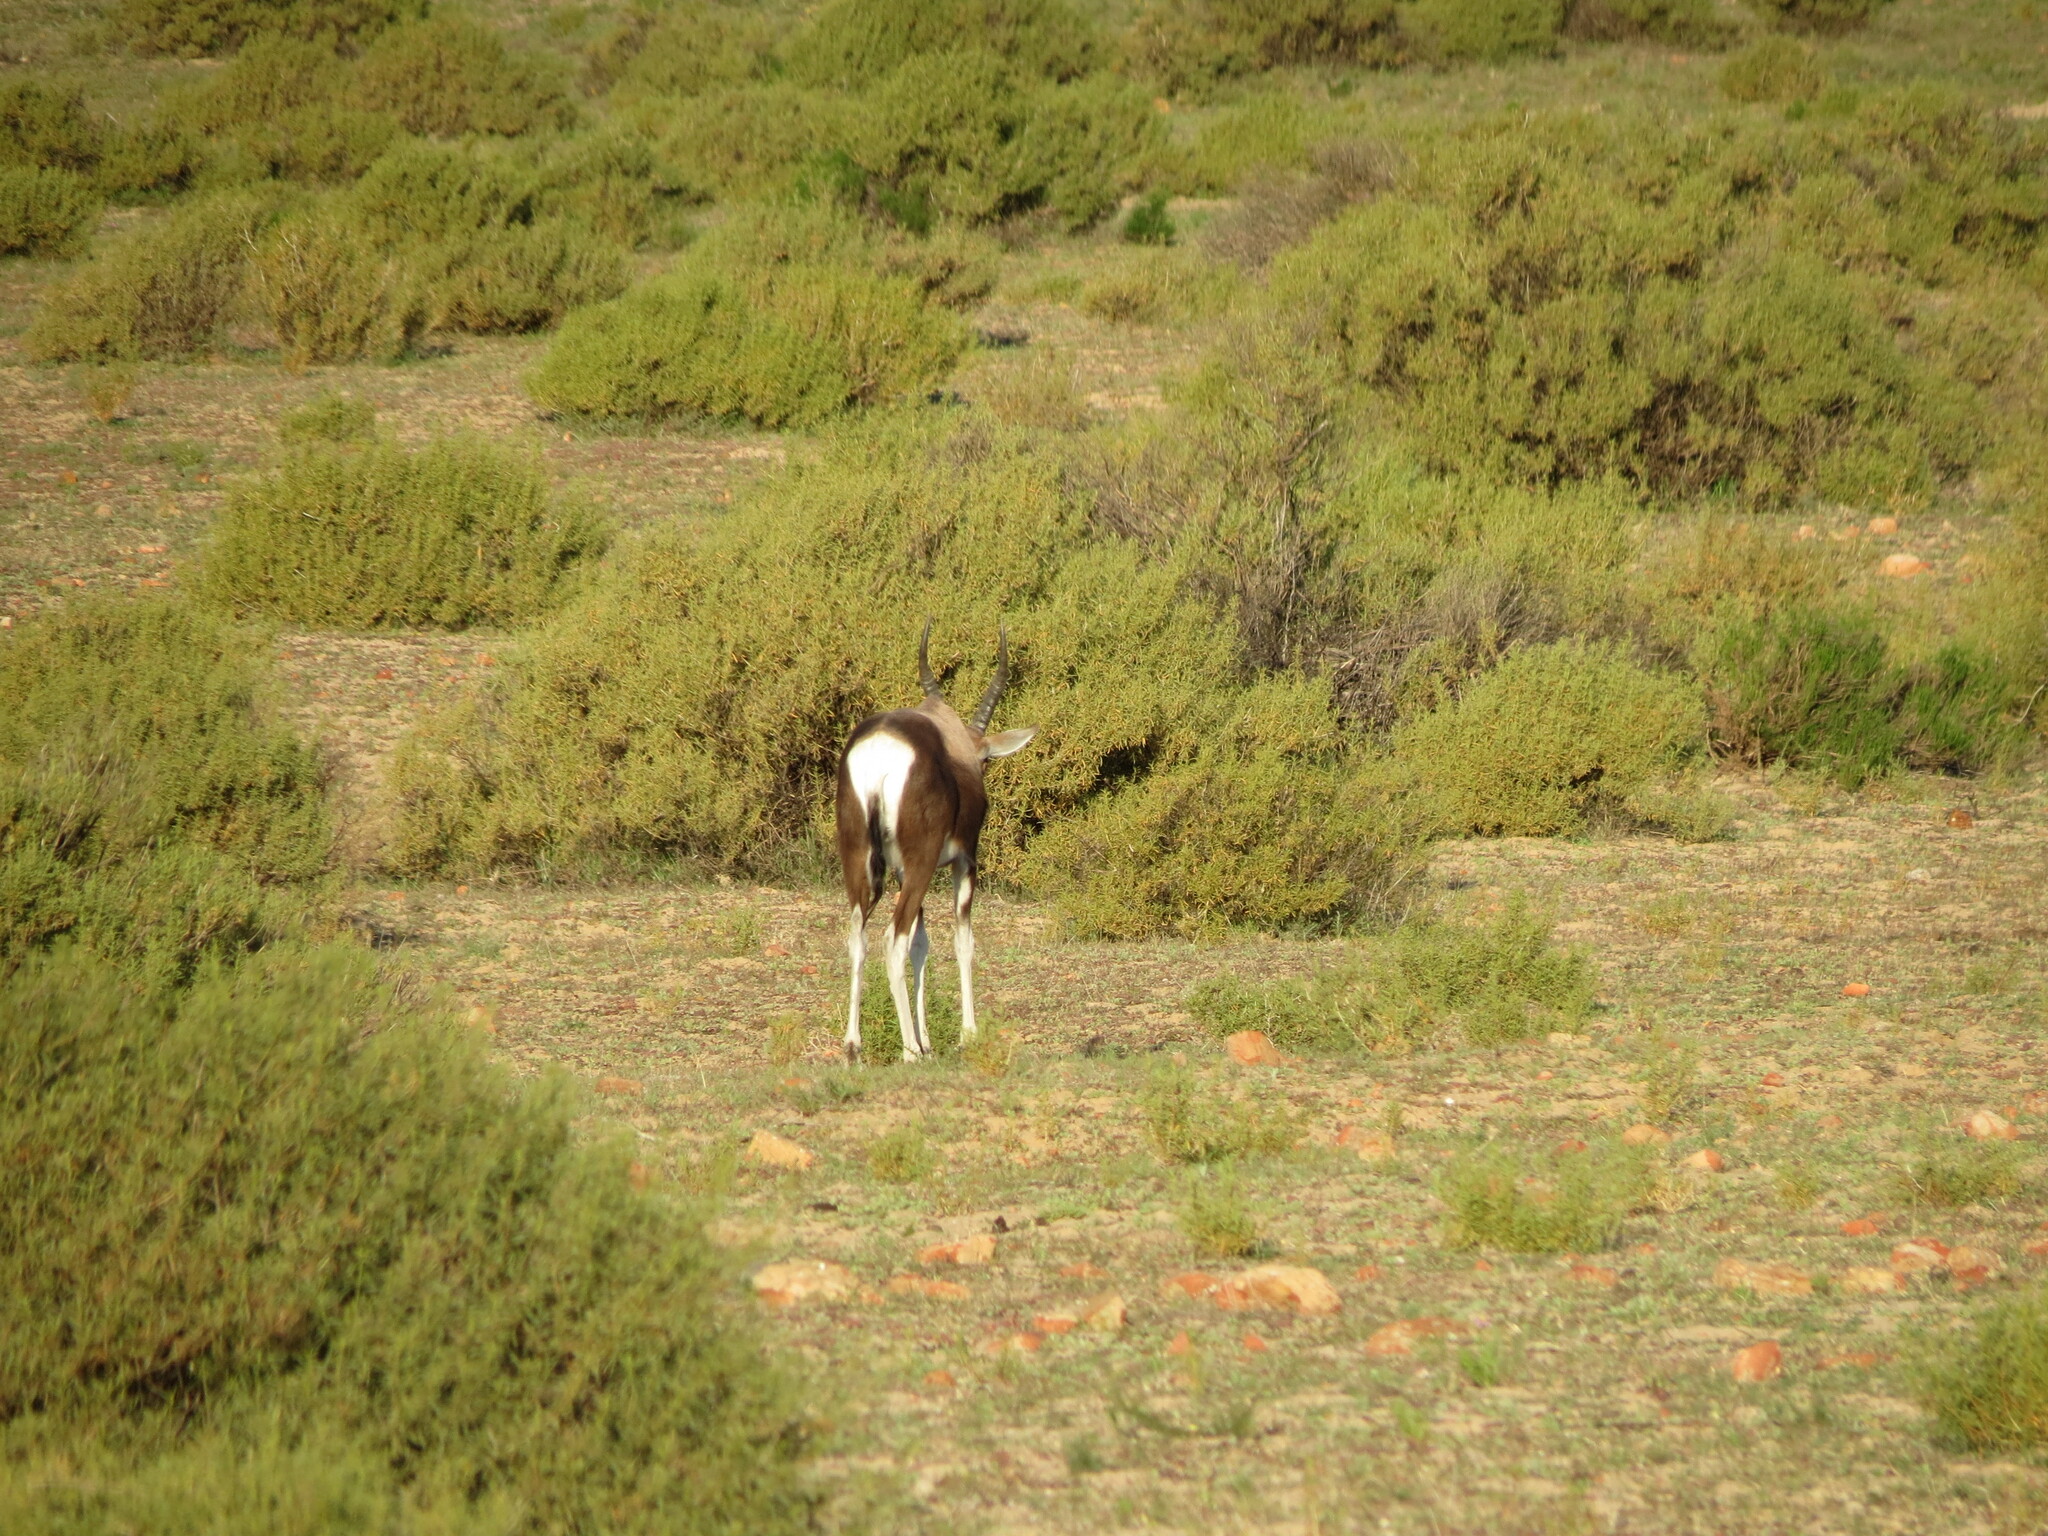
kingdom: Animalia
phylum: Chordata
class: Mammalia
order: Artiodactyla
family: Bovidae
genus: Damaliscus
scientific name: Damaliscus pygargus
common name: Bontebok
